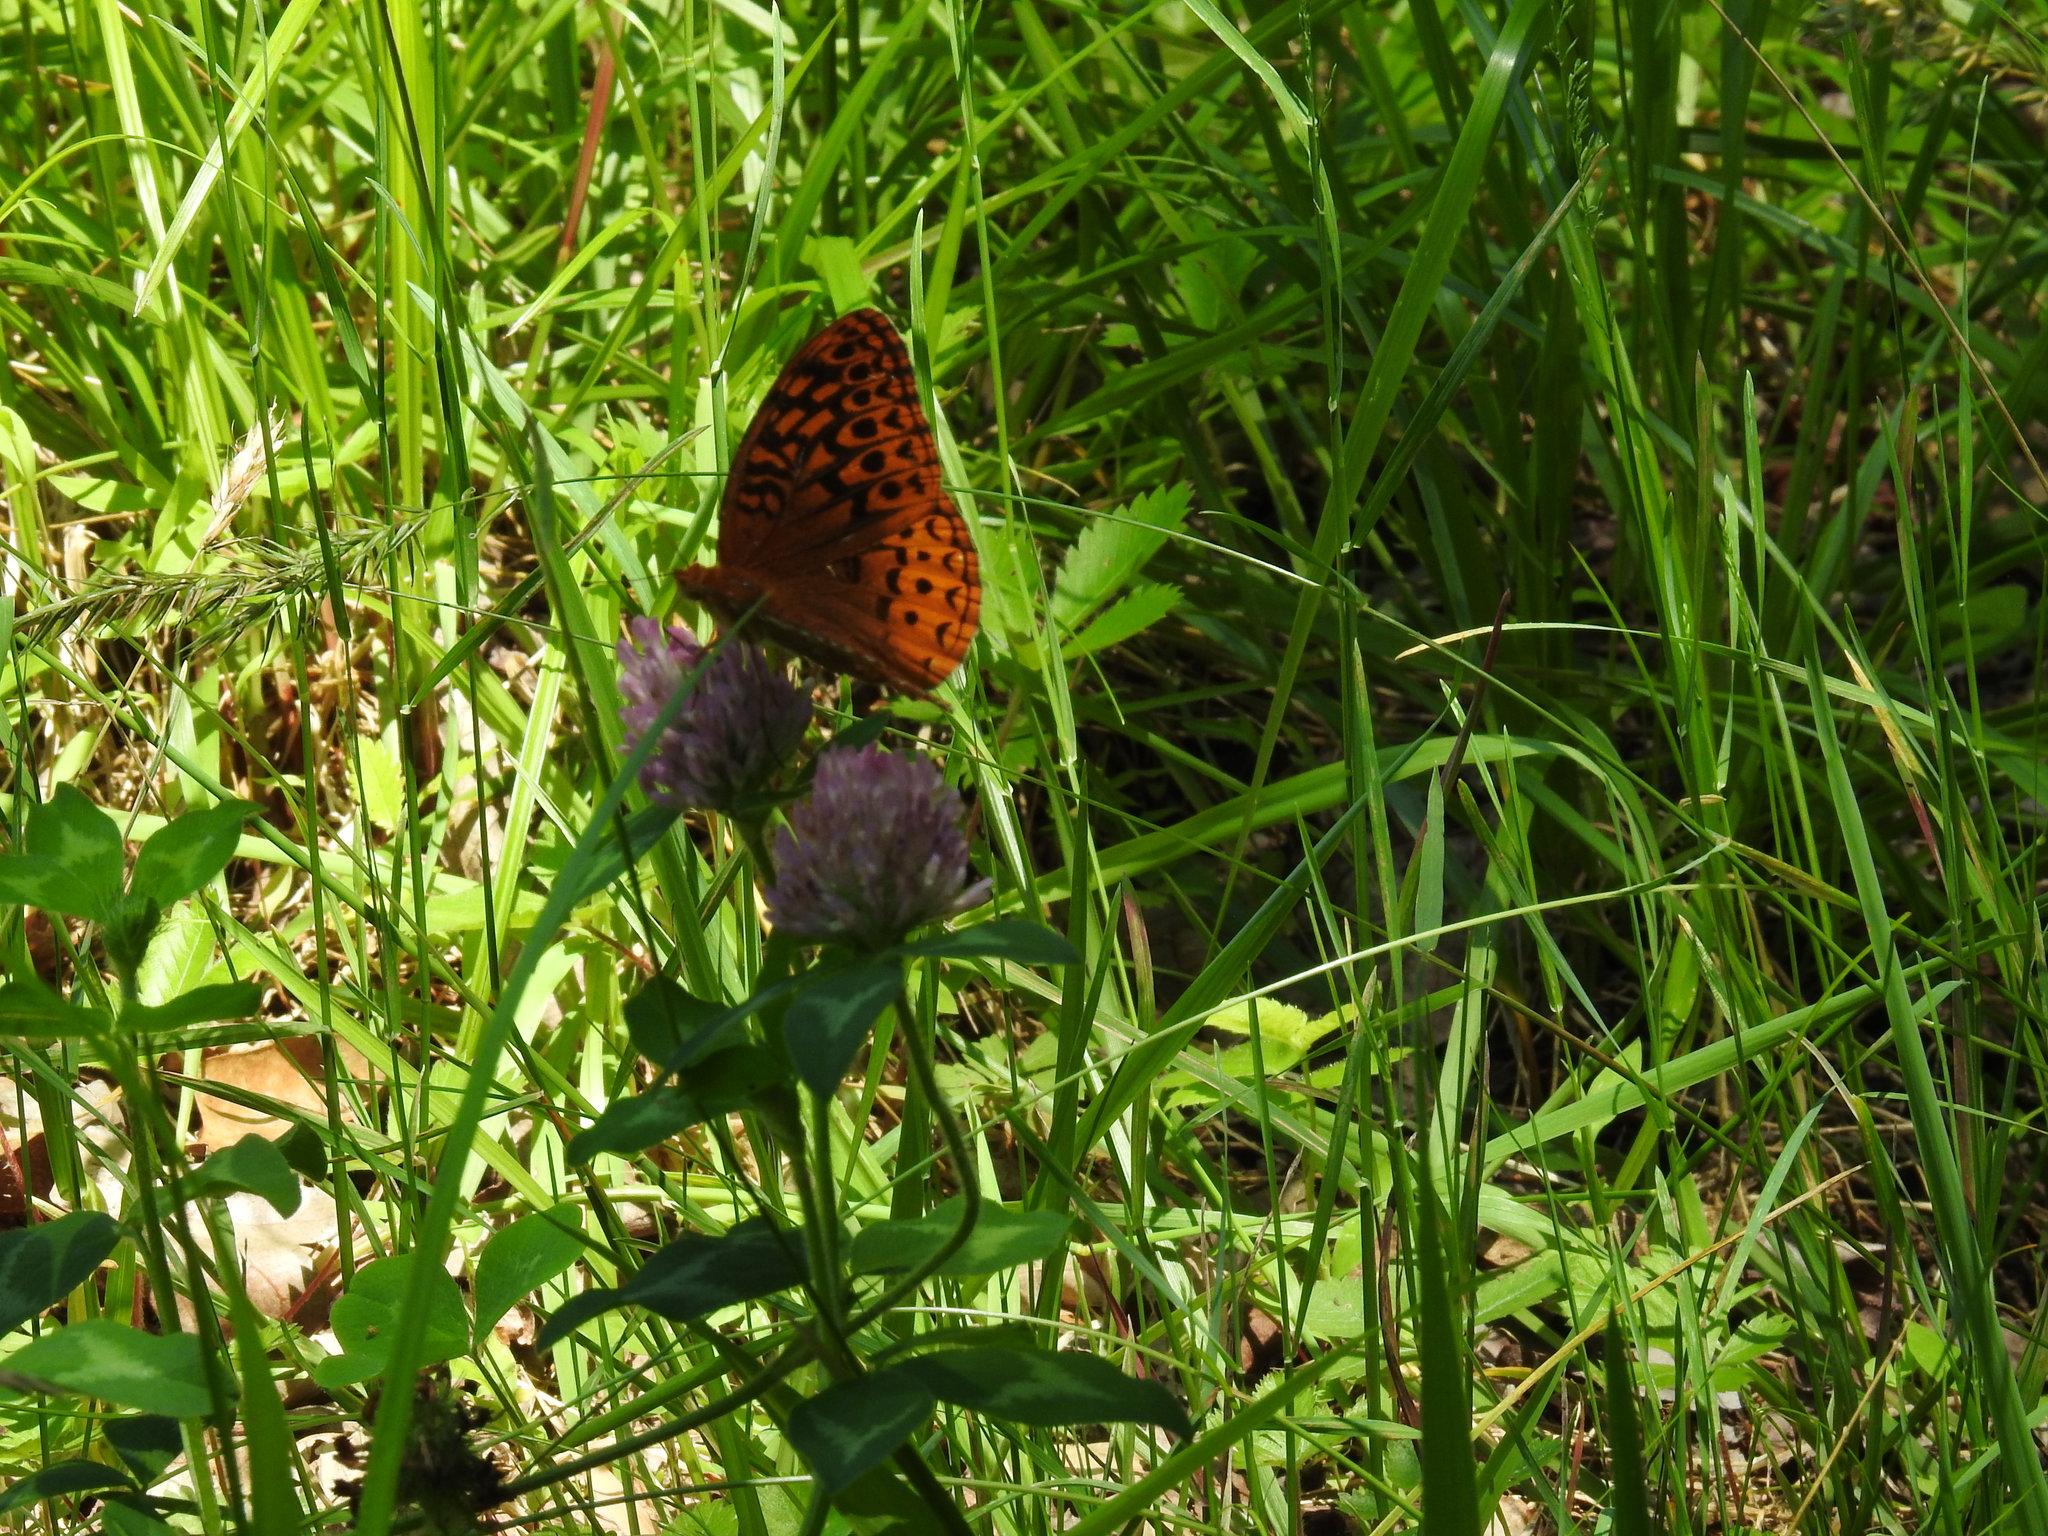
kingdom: Animalia
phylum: Arthropoda
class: Insecta
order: Lepidoptera
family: Nymphalidae
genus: Speyeria
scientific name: Speyeria cybele
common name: Great spangled fritillary
